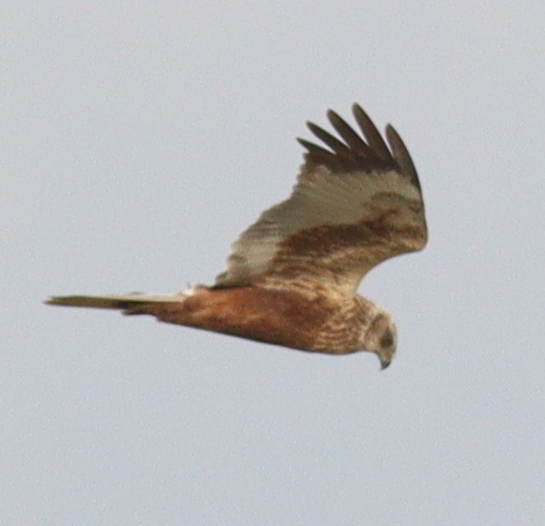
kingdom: Animalia
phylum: Chordata
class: Aves
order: Accipitriformes
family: Accipitridae
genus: Circus
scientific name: Circus aeruginosus
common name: Western marsh harrier
